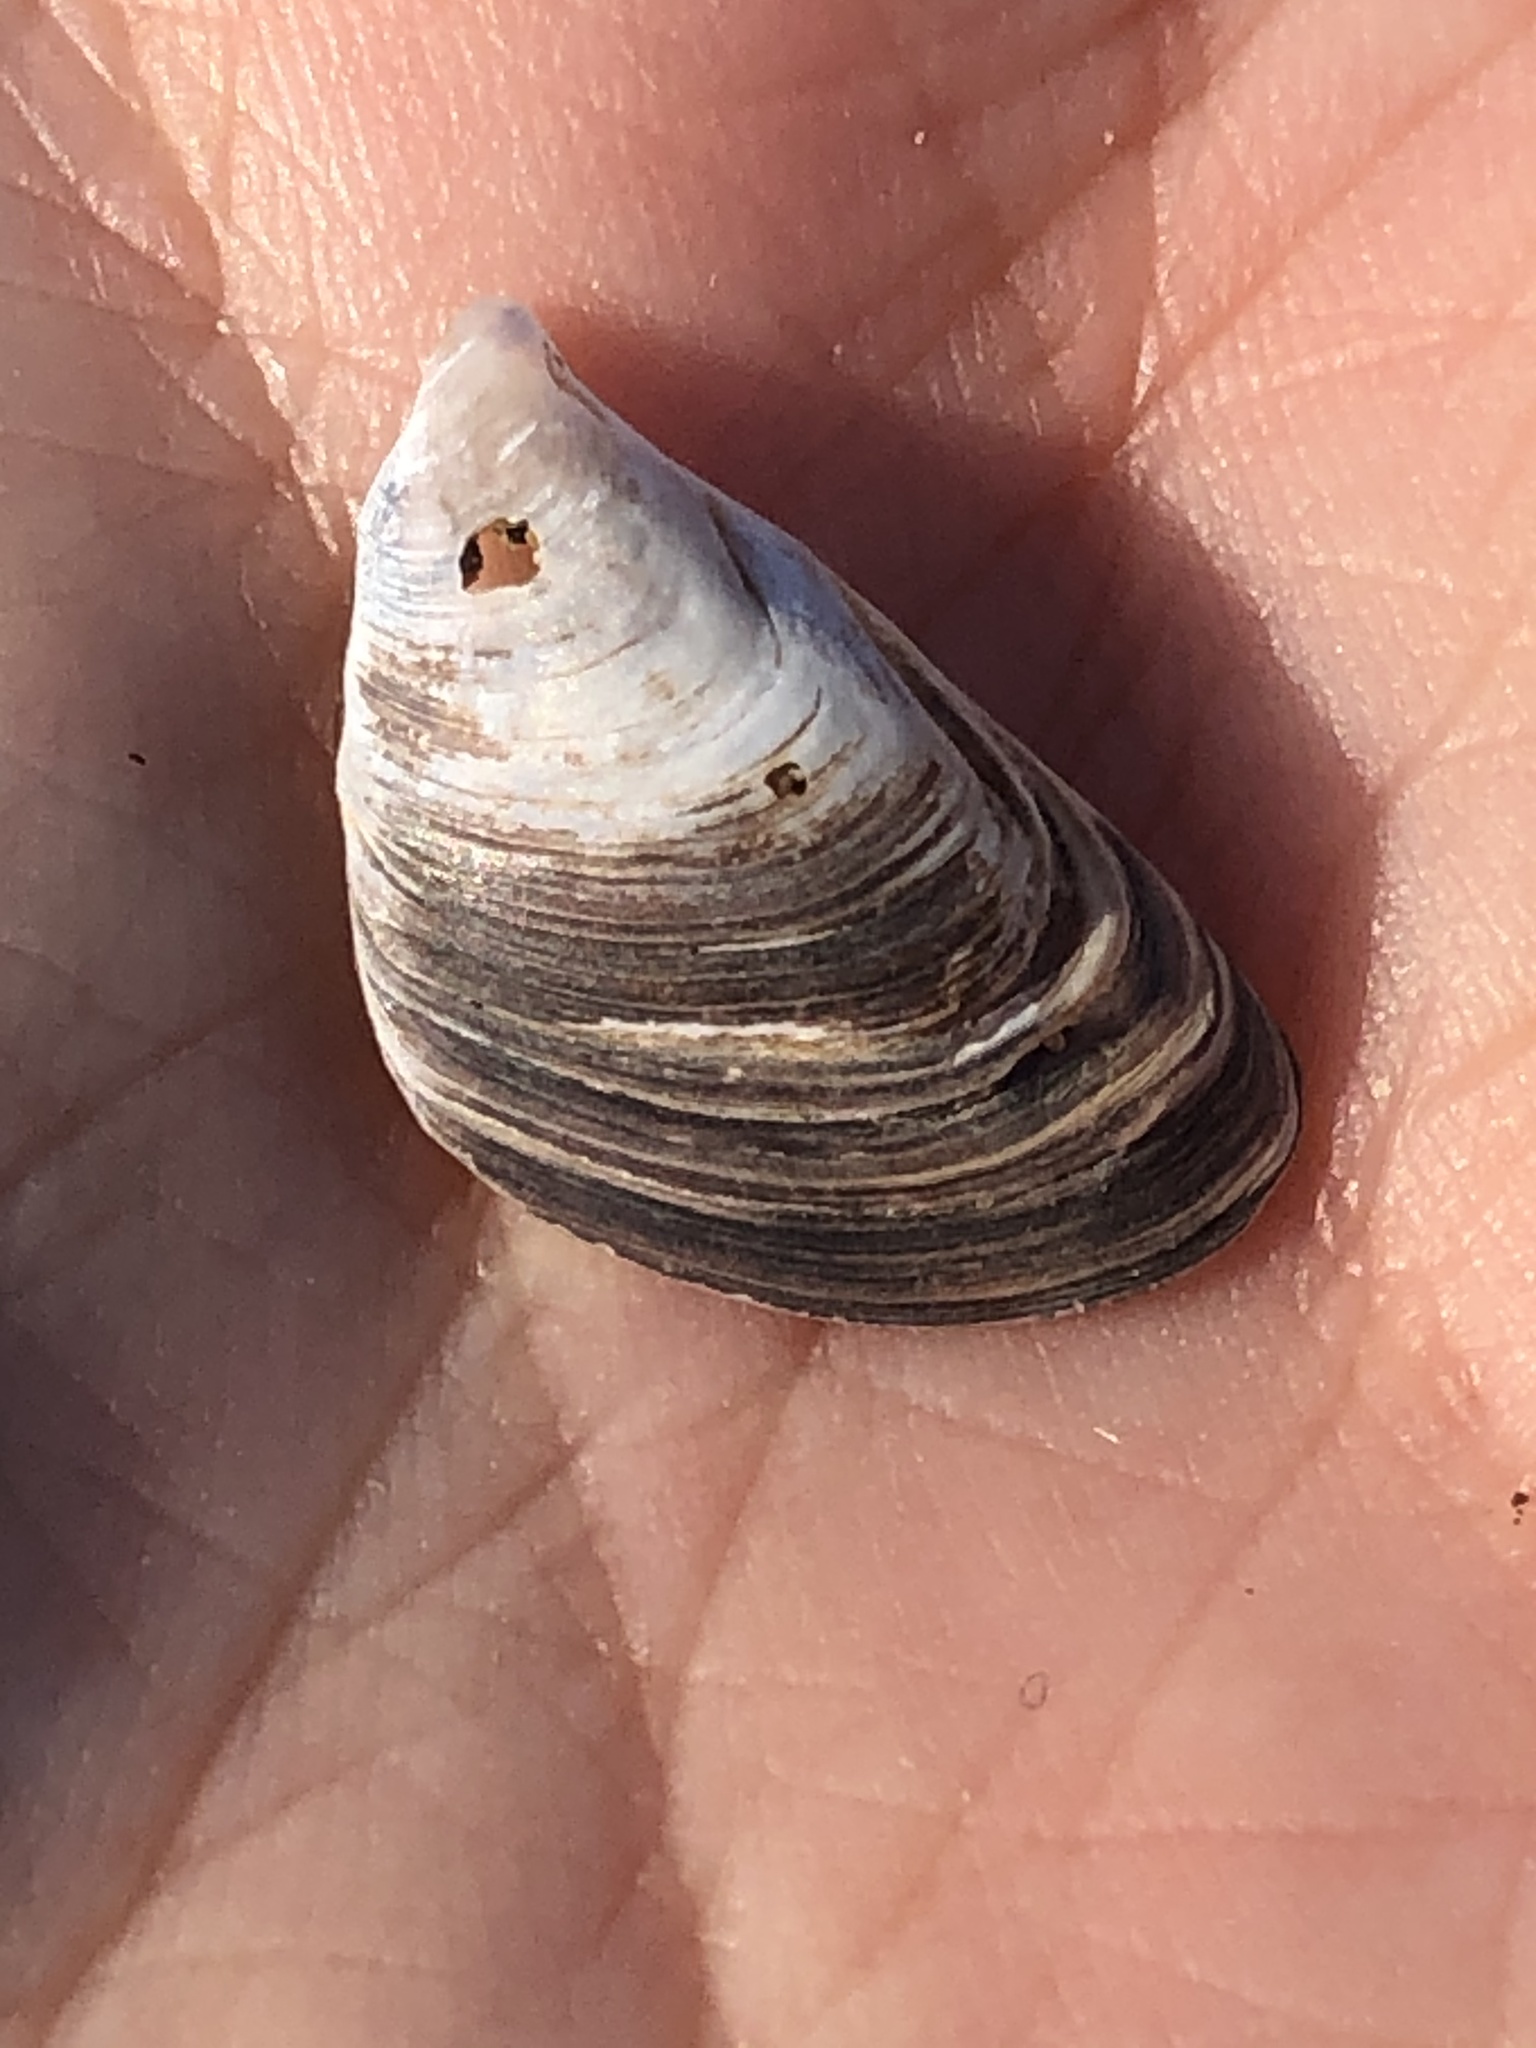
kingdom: Animalia
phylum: Mollusca
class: Bivalvia
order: Myida
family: Dreissenidae
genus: Dreissena
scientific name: Dreissena bugensis
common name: Quagga mussel
